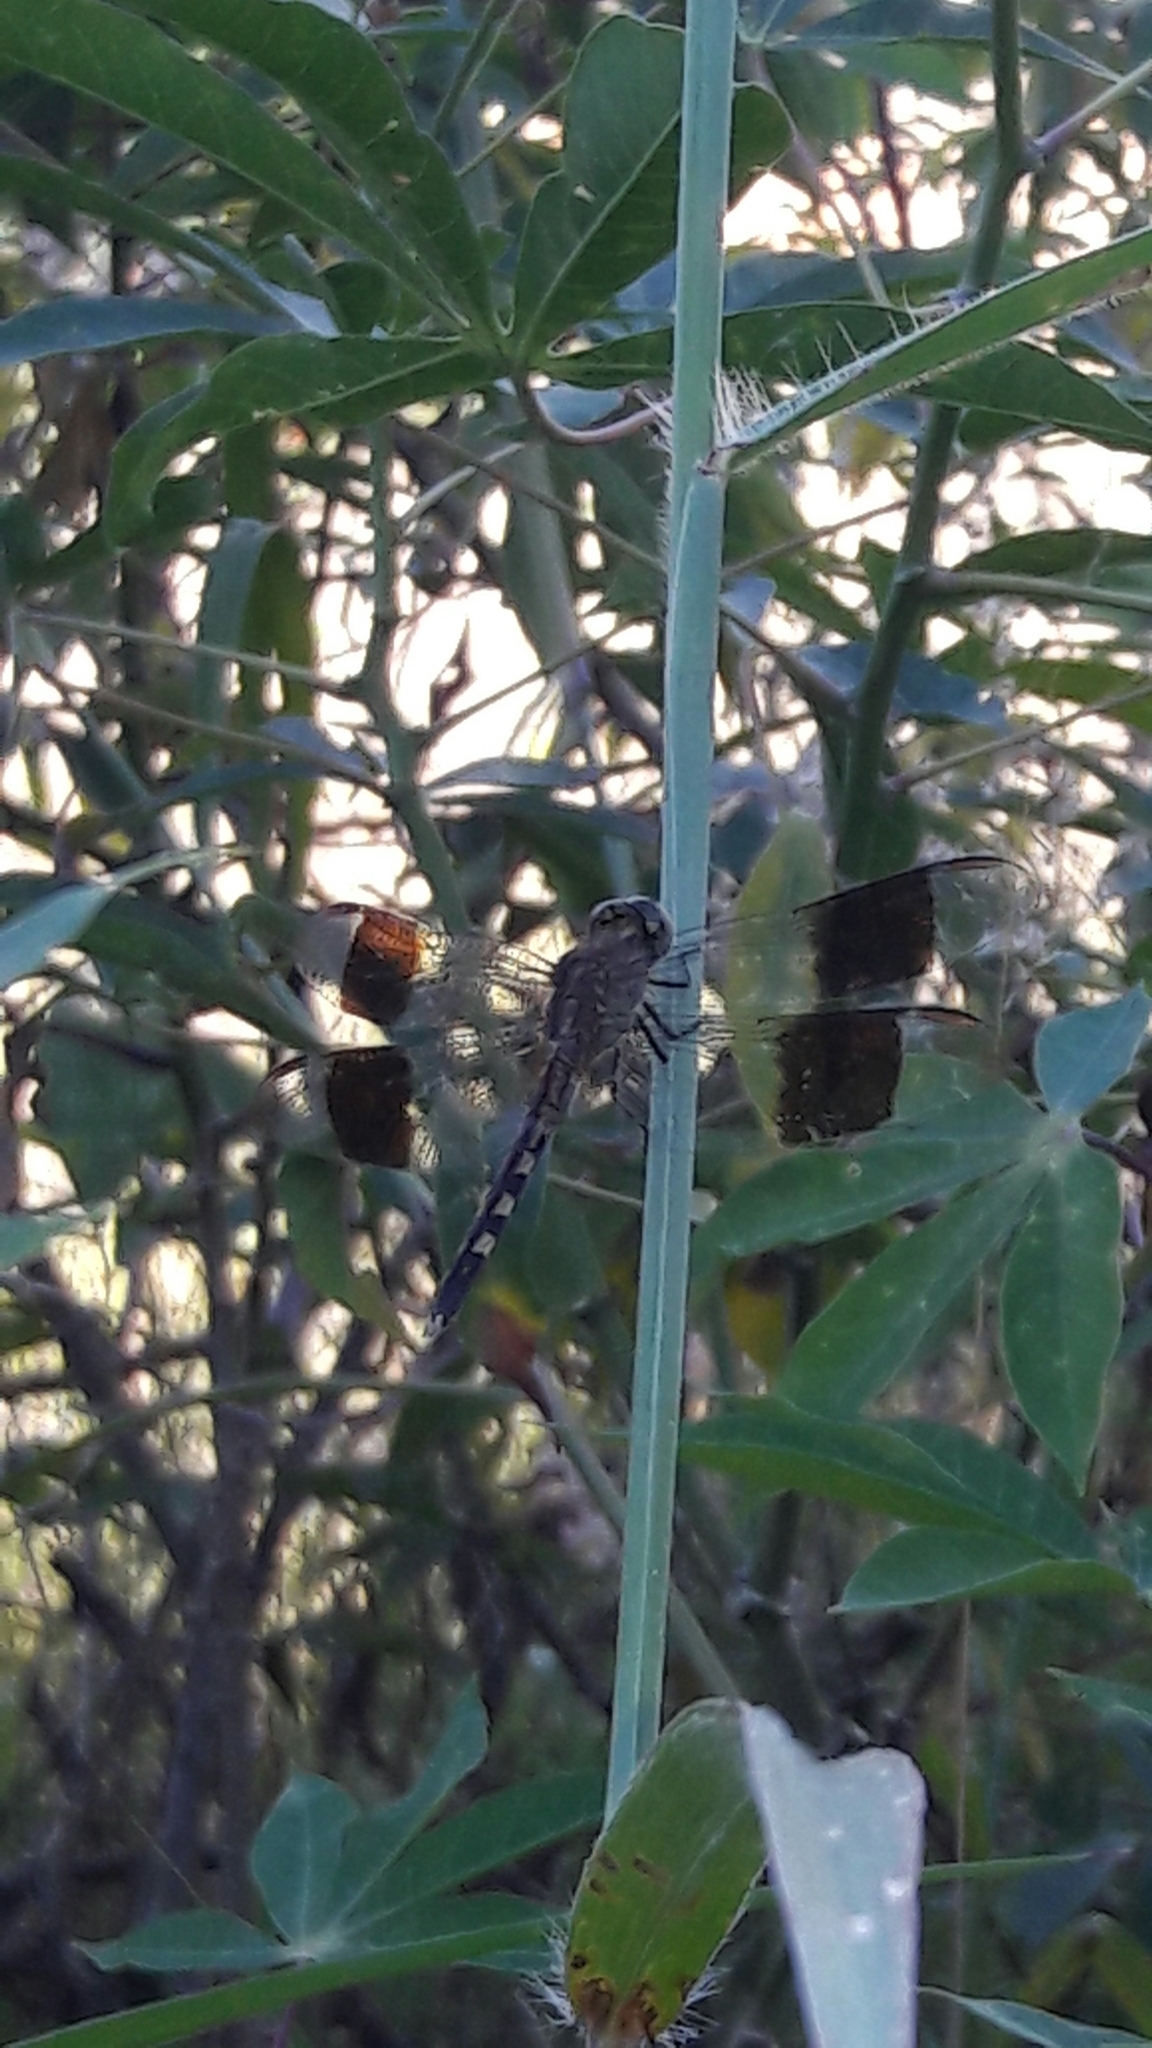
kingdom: Animalia
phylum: Arthropoda
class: Insecta
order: Odonata
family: Libellulidae
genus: Erythrodiplax
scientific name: Erythrodiplax umbrata
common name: Band-winged dragonlet
